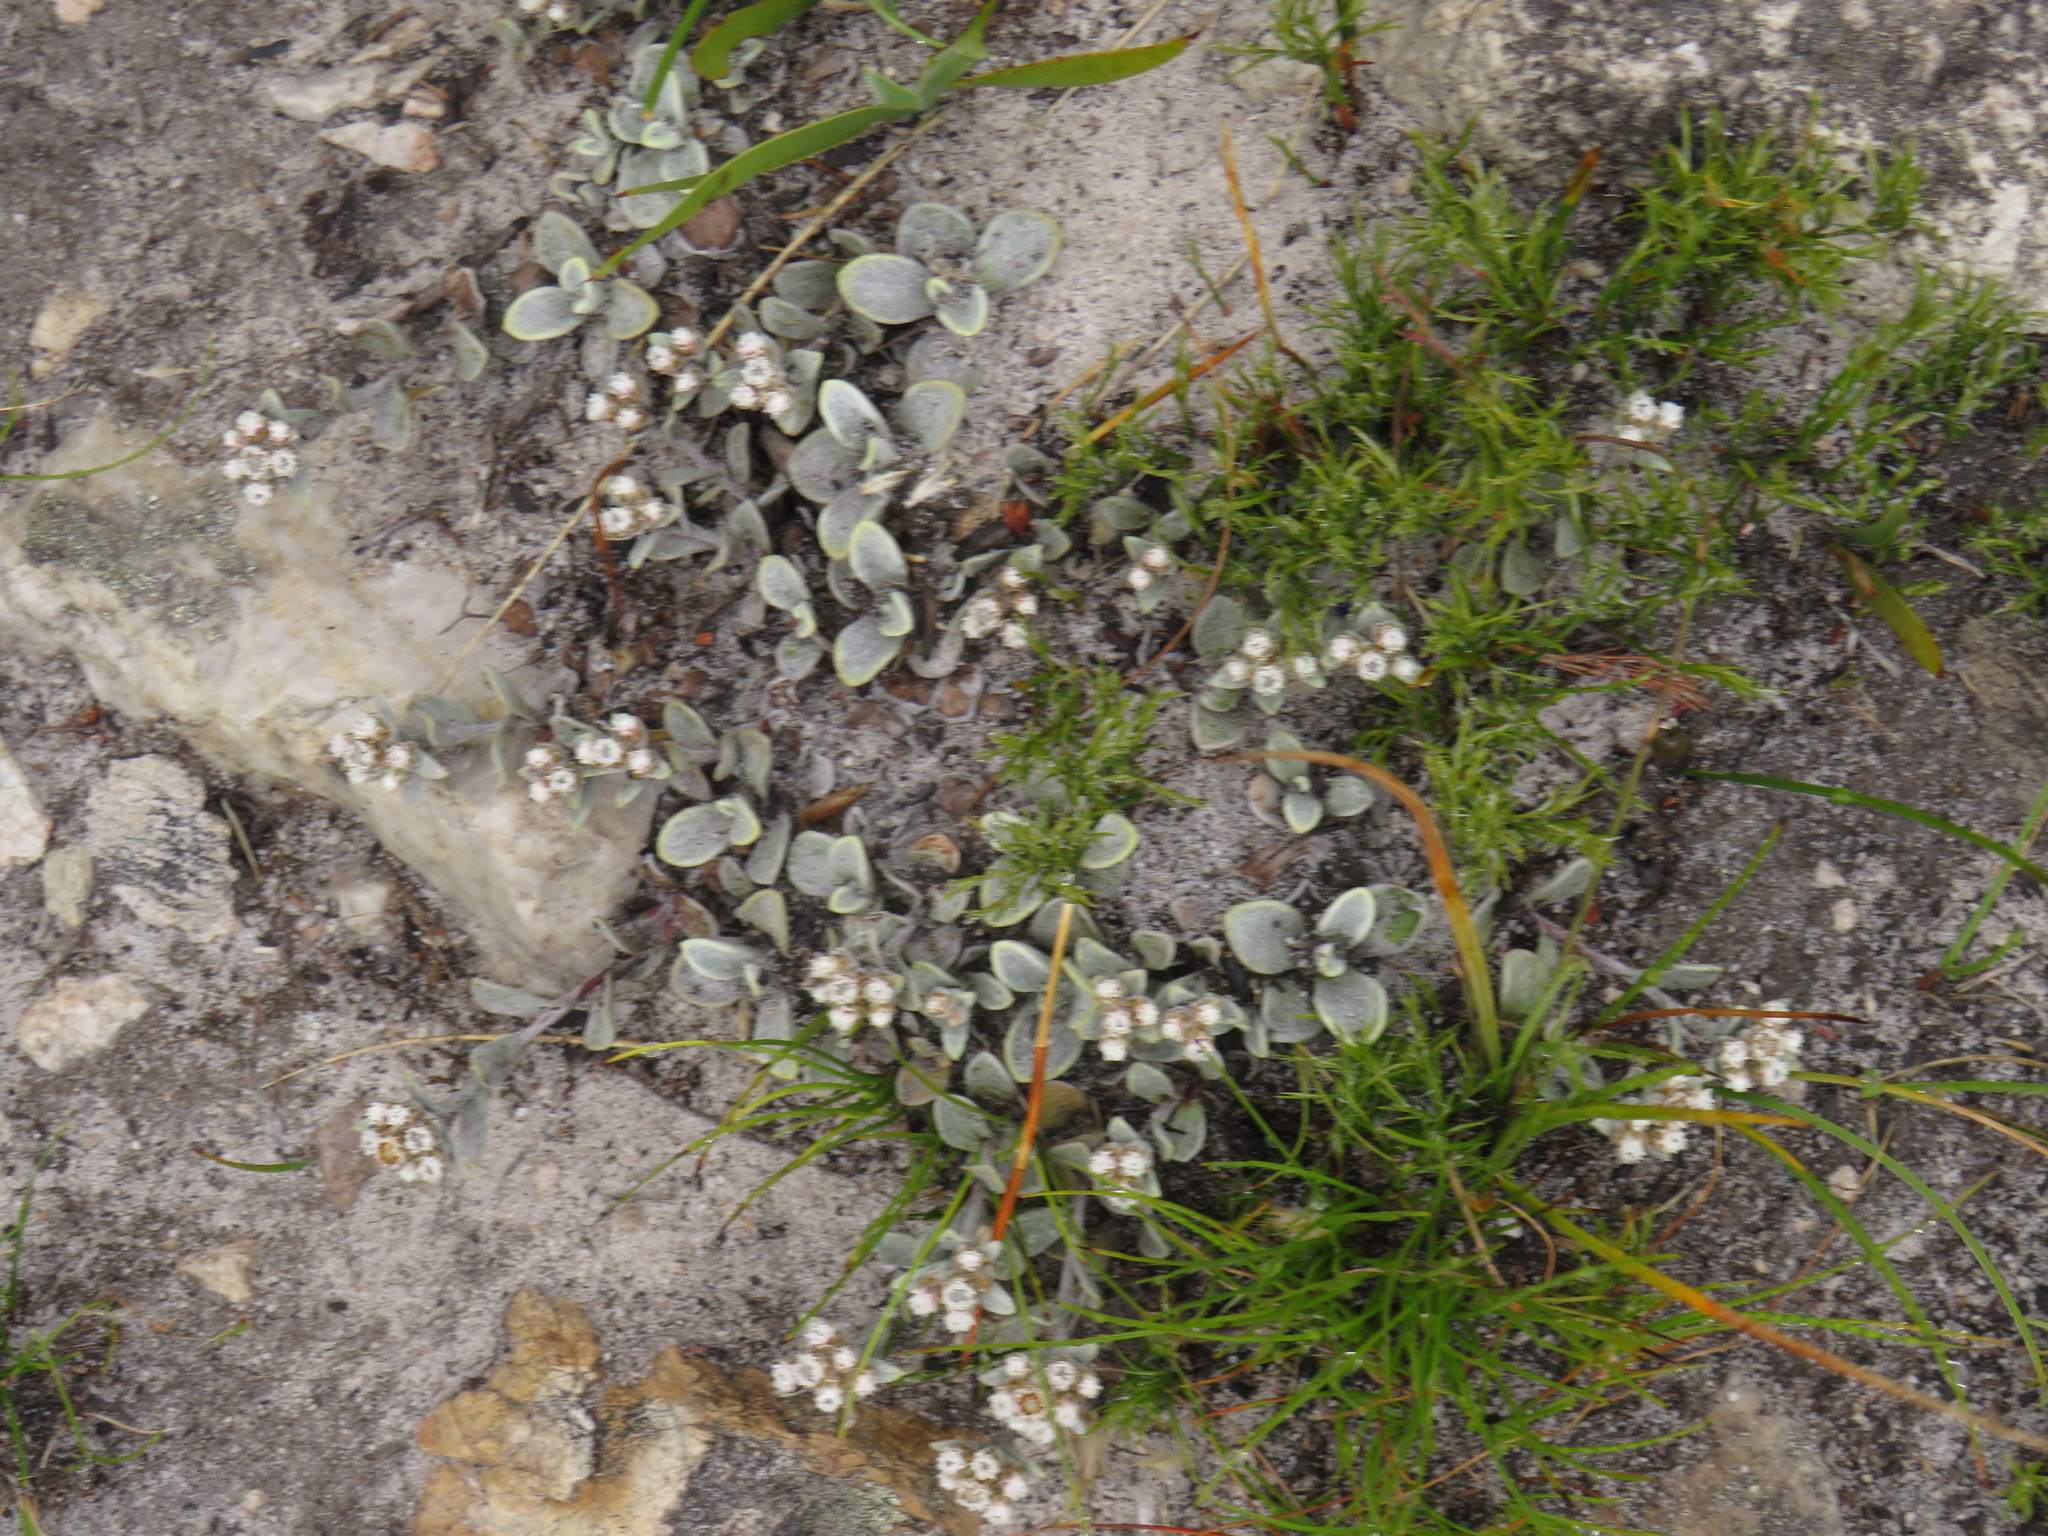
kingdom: Plantae
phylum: Tracheophyta
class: Magnoliopsida
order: Asterales
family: Asteraceae
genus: Helichrysum
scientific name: Helichrysum rotundifolium
